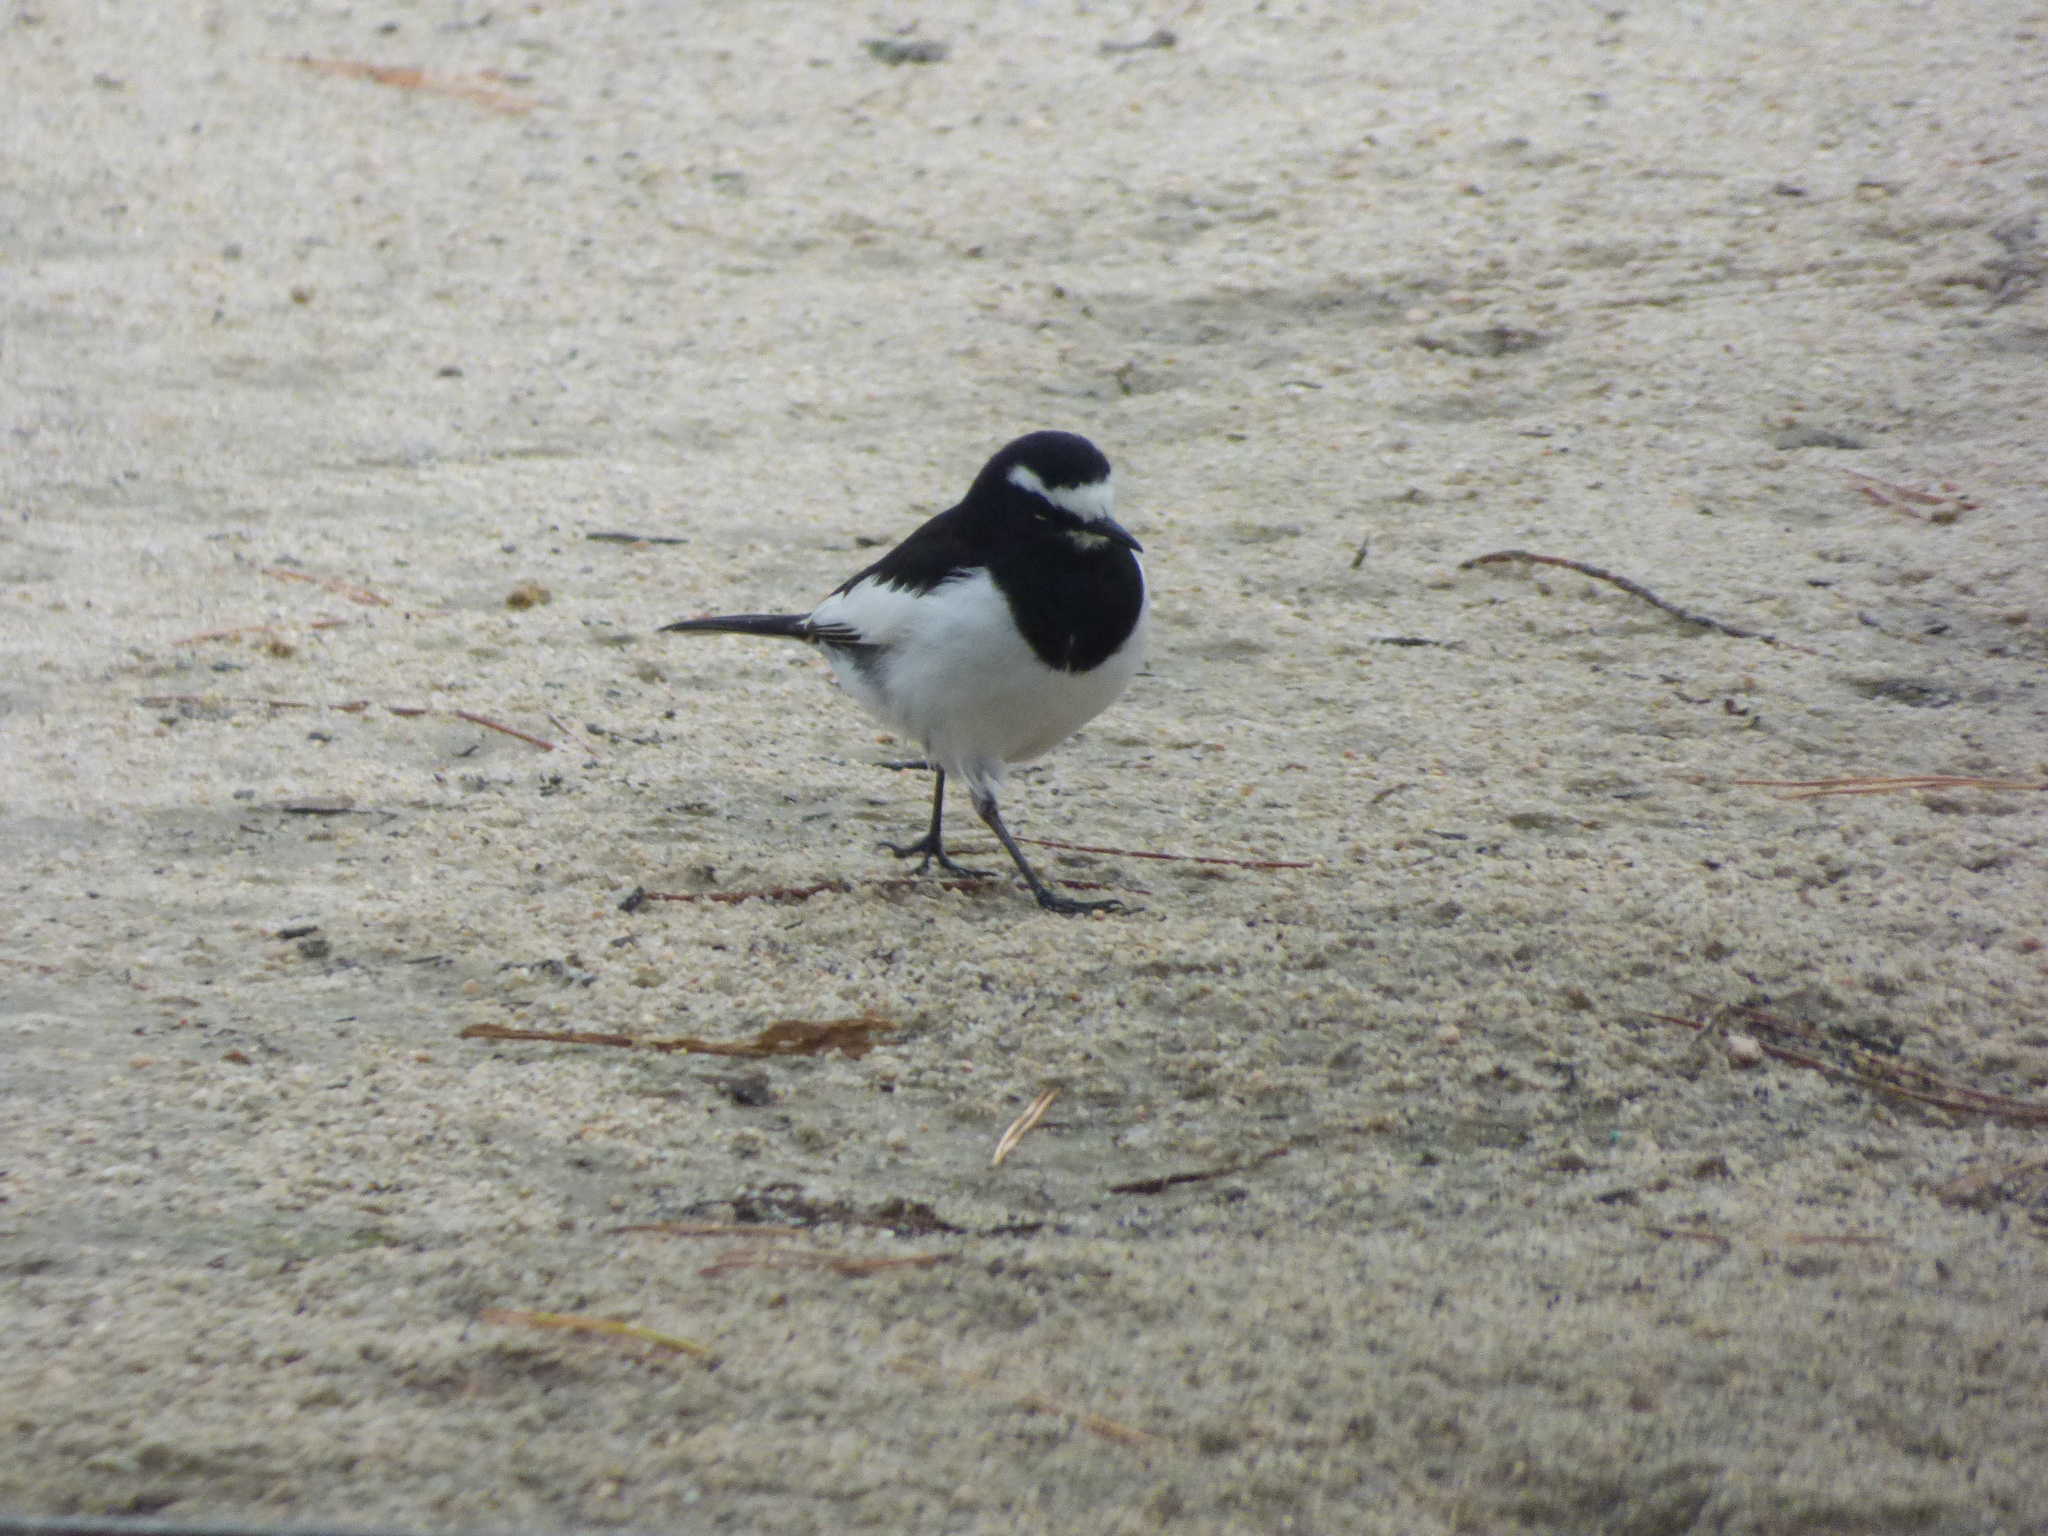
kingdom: Animalia
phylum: Chordata
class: Aves
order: Passeriformes
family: Motacillidae
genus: Motacilla
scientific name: Motacilla grandis
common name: Japanese wagtail
